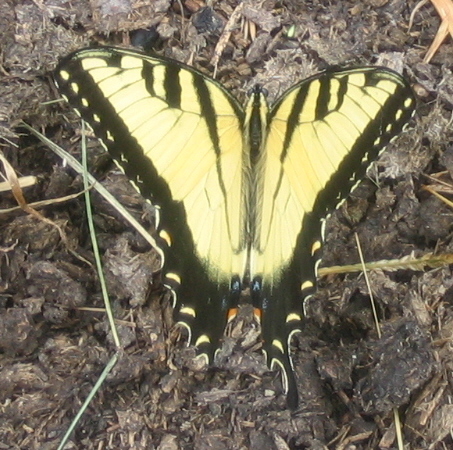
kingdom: Animalia
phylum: Arthropoda
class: Insecta
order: Lepidoptera
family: Papilionidae
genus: Papilio
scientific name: Papilio glaucus
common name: Tiger swallowtail
